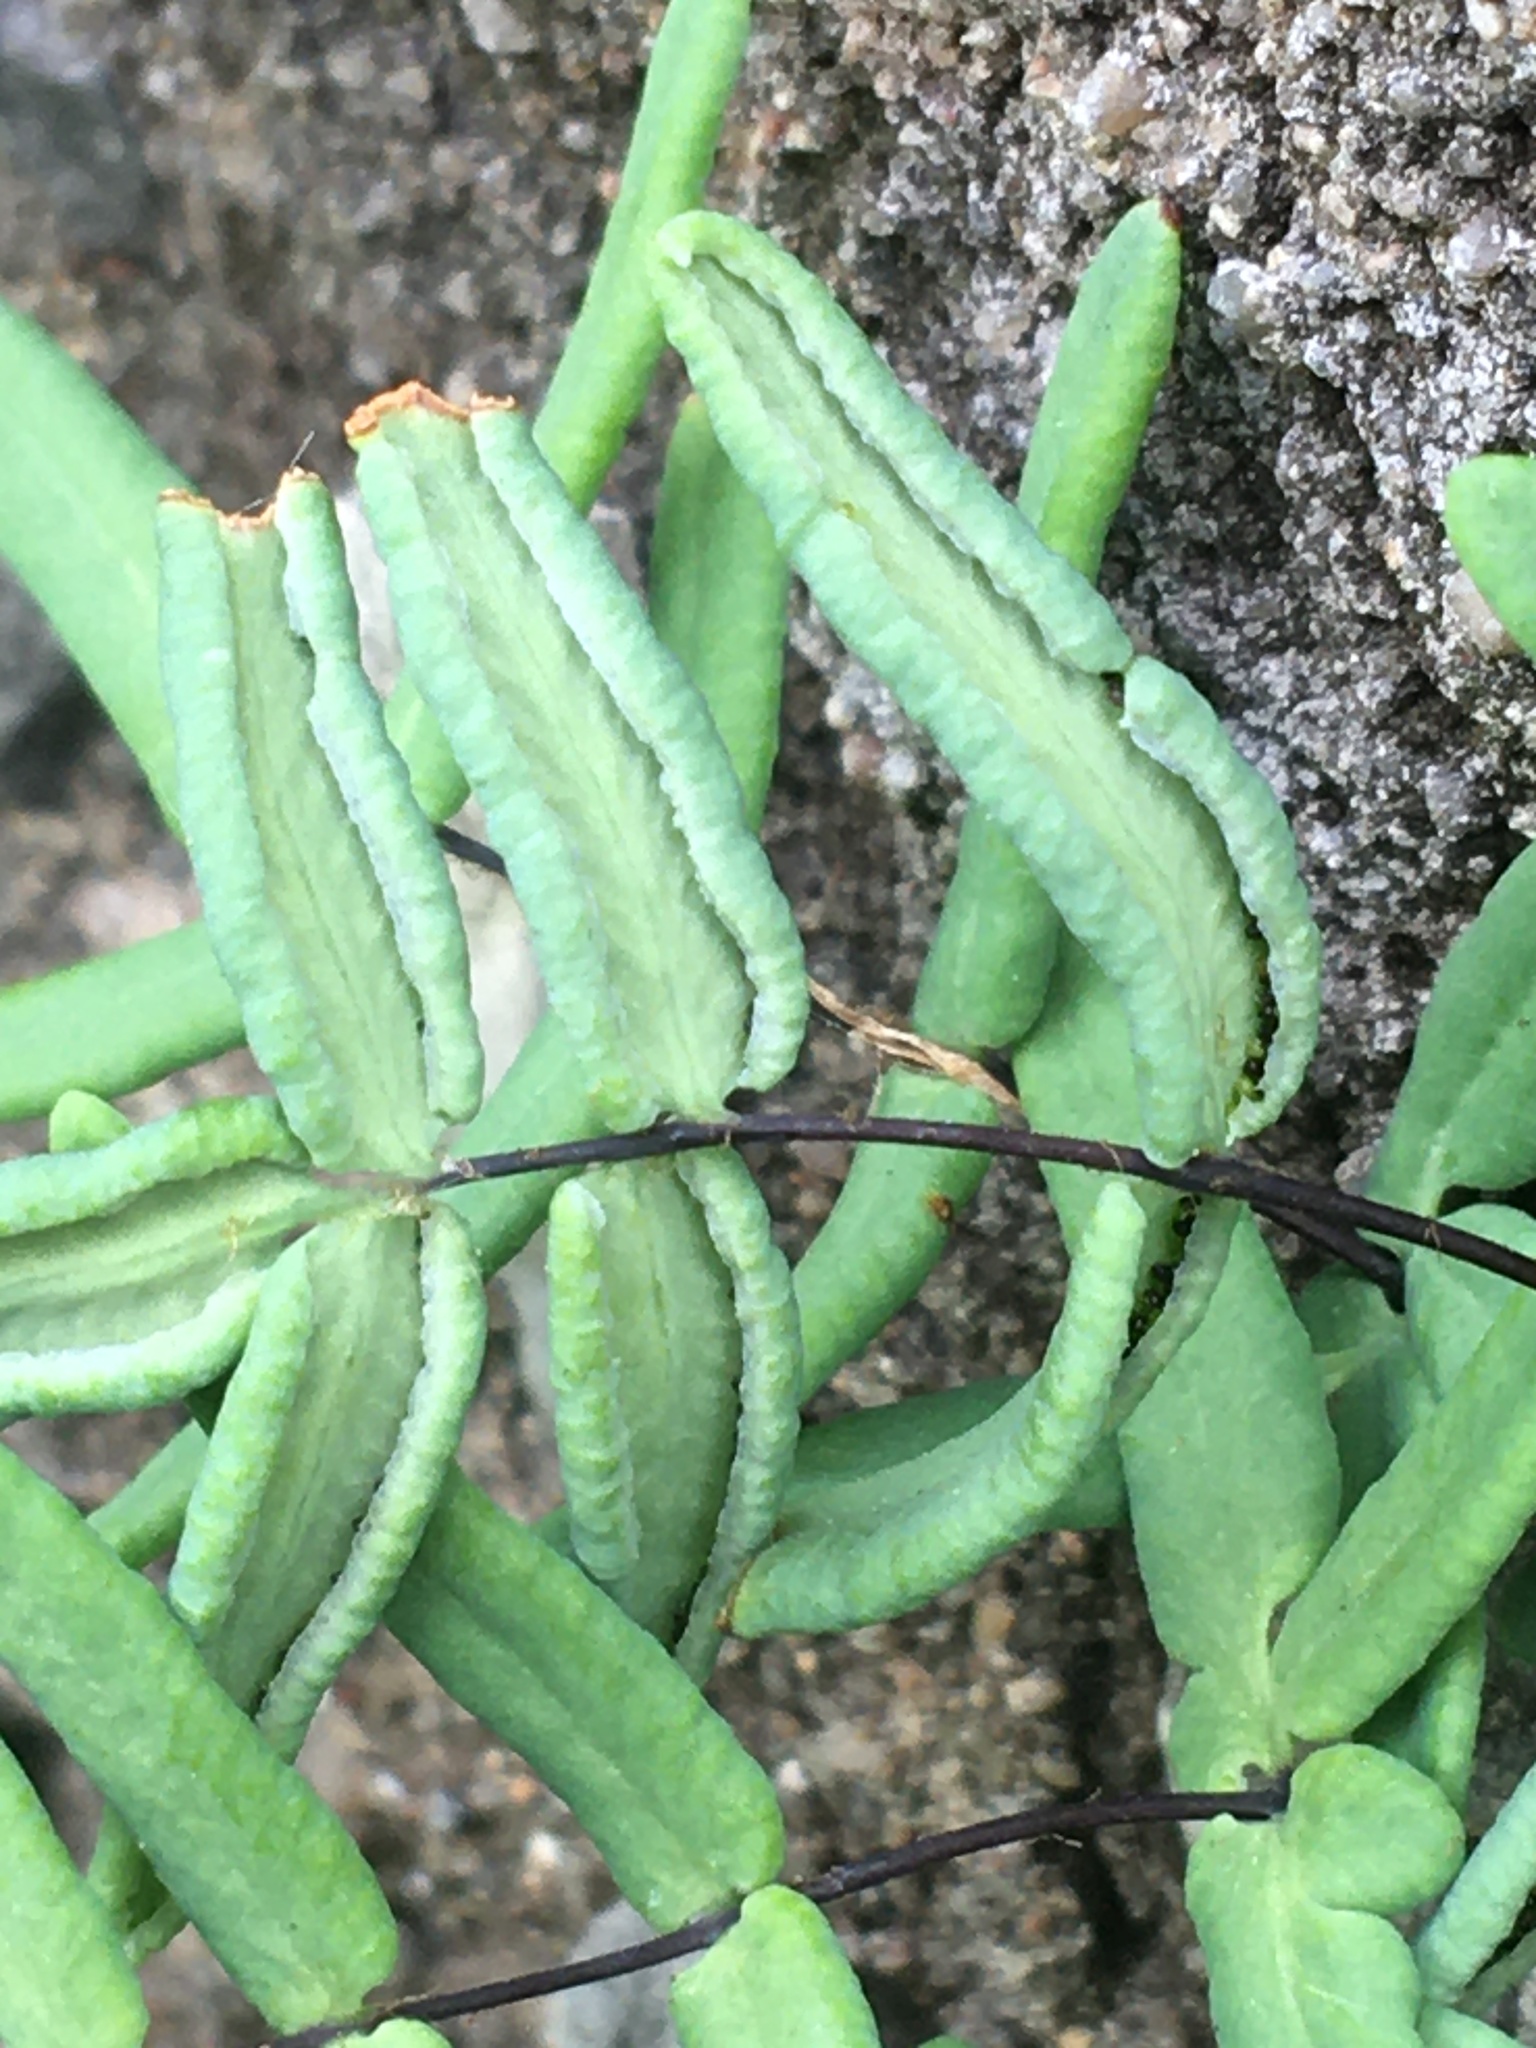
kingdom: Plantae
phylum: Tracheophyta
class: Polypodiopsida
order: Polypodiales
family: Pteridaceae
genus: Pellaea
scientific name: Pellaea glabella
